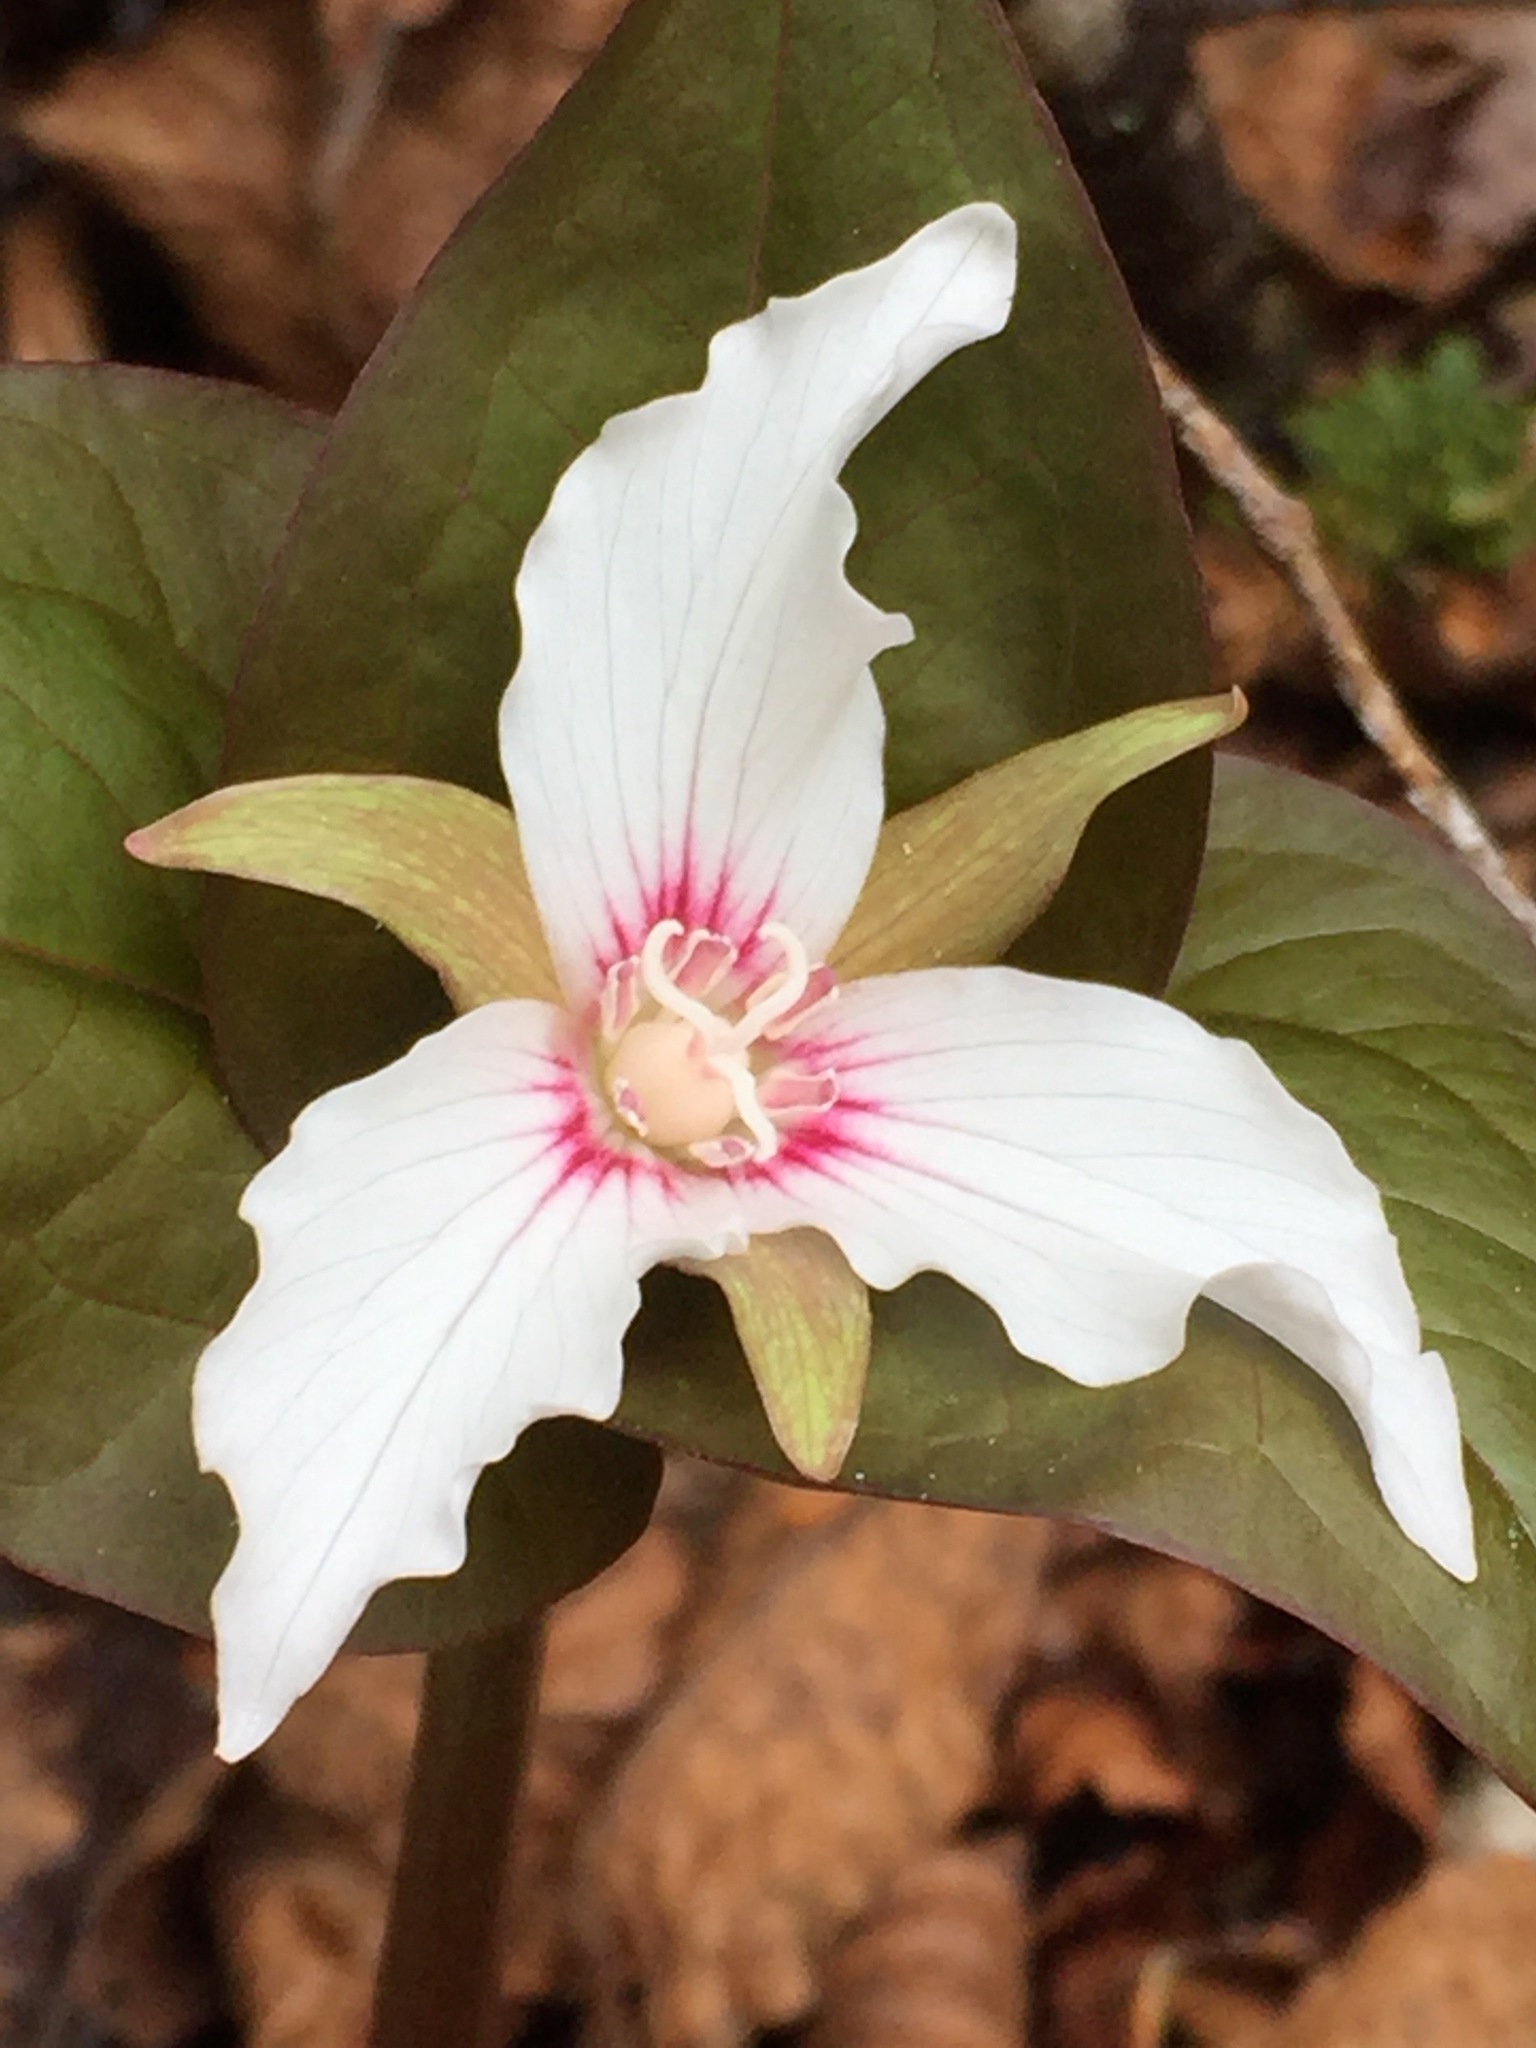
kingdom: Plantae
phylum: Tracheophyta
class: Liliopsida
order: Liliales
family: Melanthiaceae
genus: Trillium
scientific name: Trillium undulatum
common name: Paint trillium
